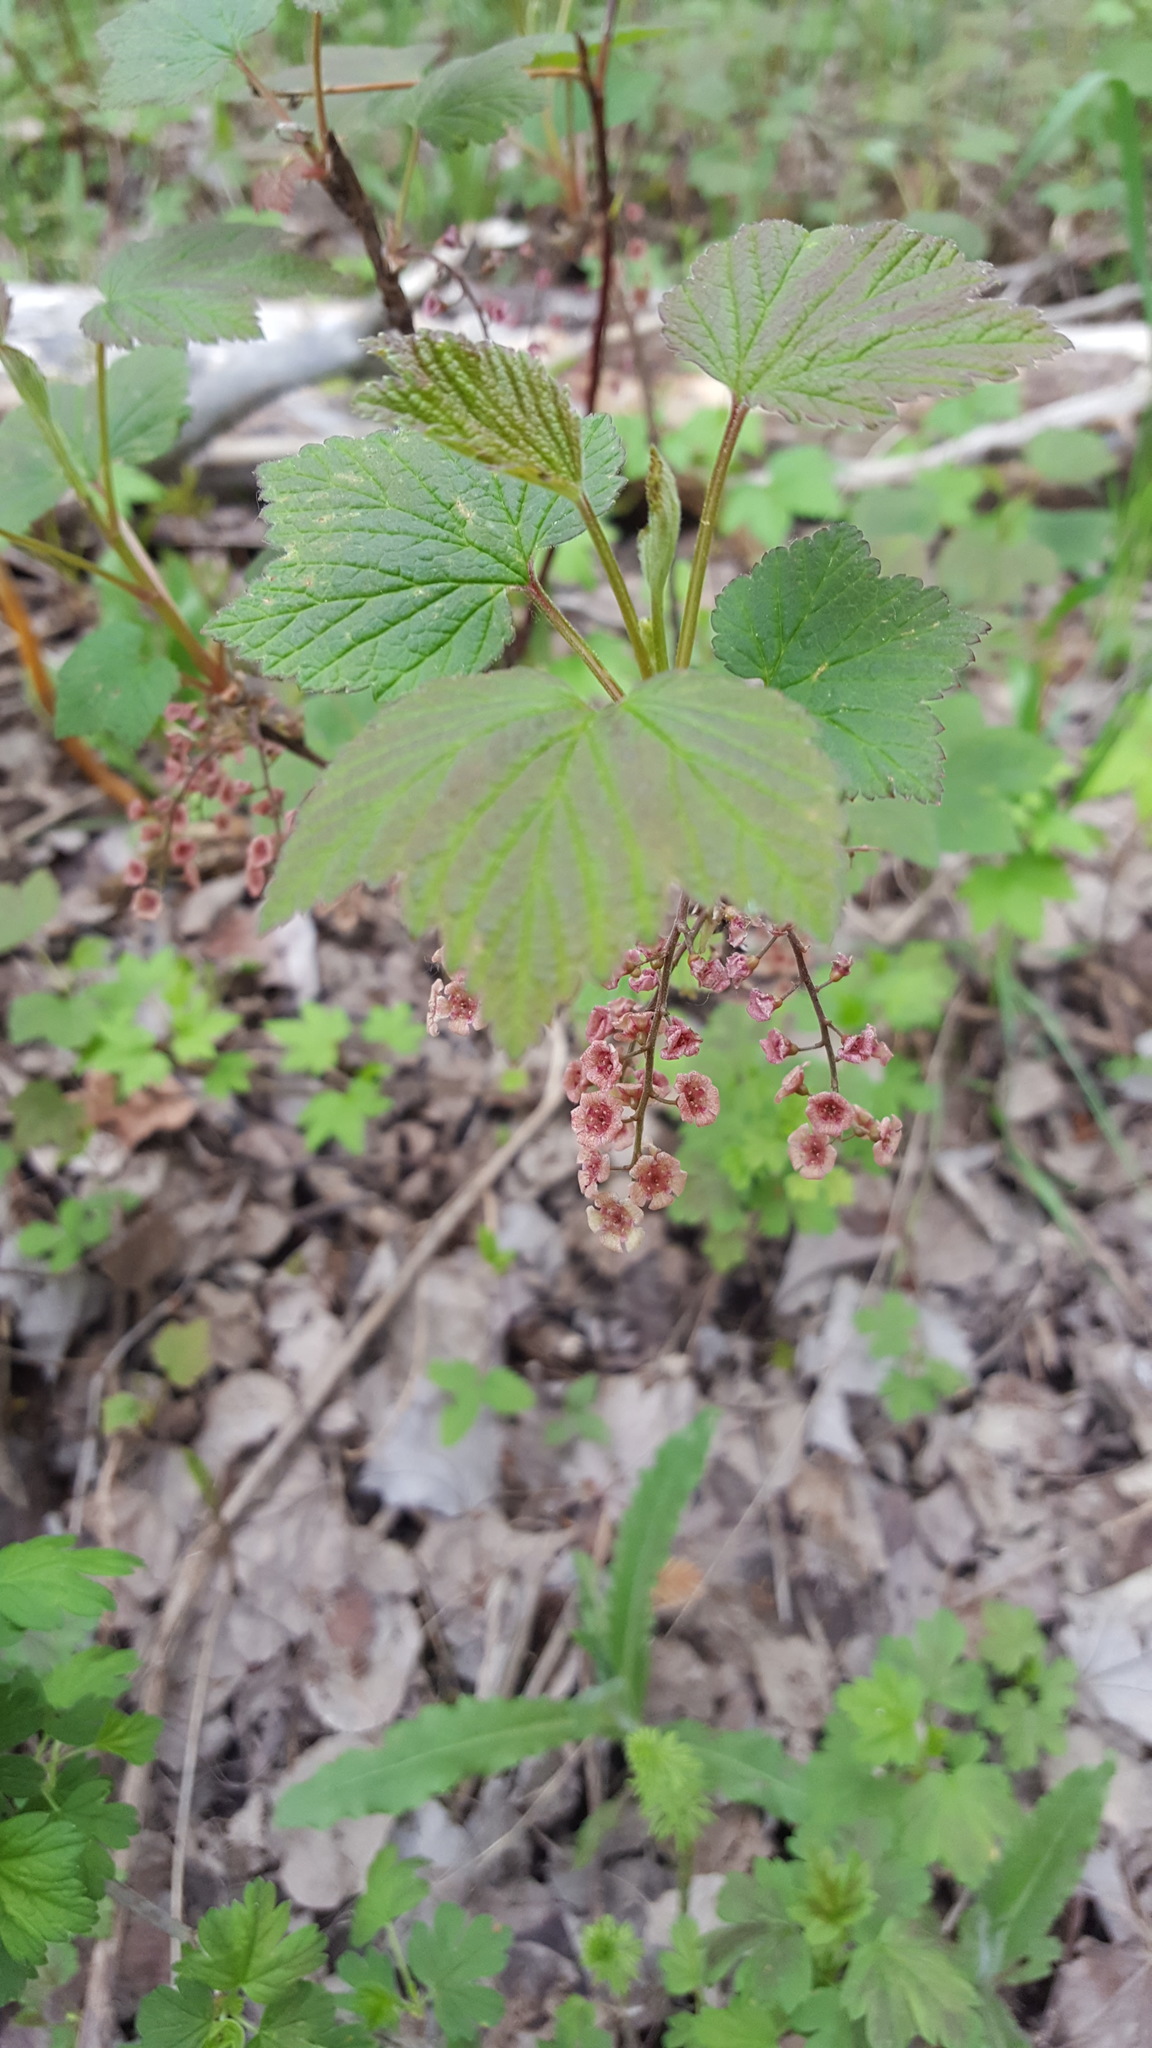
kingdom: Plantae
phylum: Tracheophyta
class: Magnoliopsida
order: Saxifragales
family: Grossulariaceae
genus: Ribes
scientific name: Ribes triste
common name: Swamp red currant
